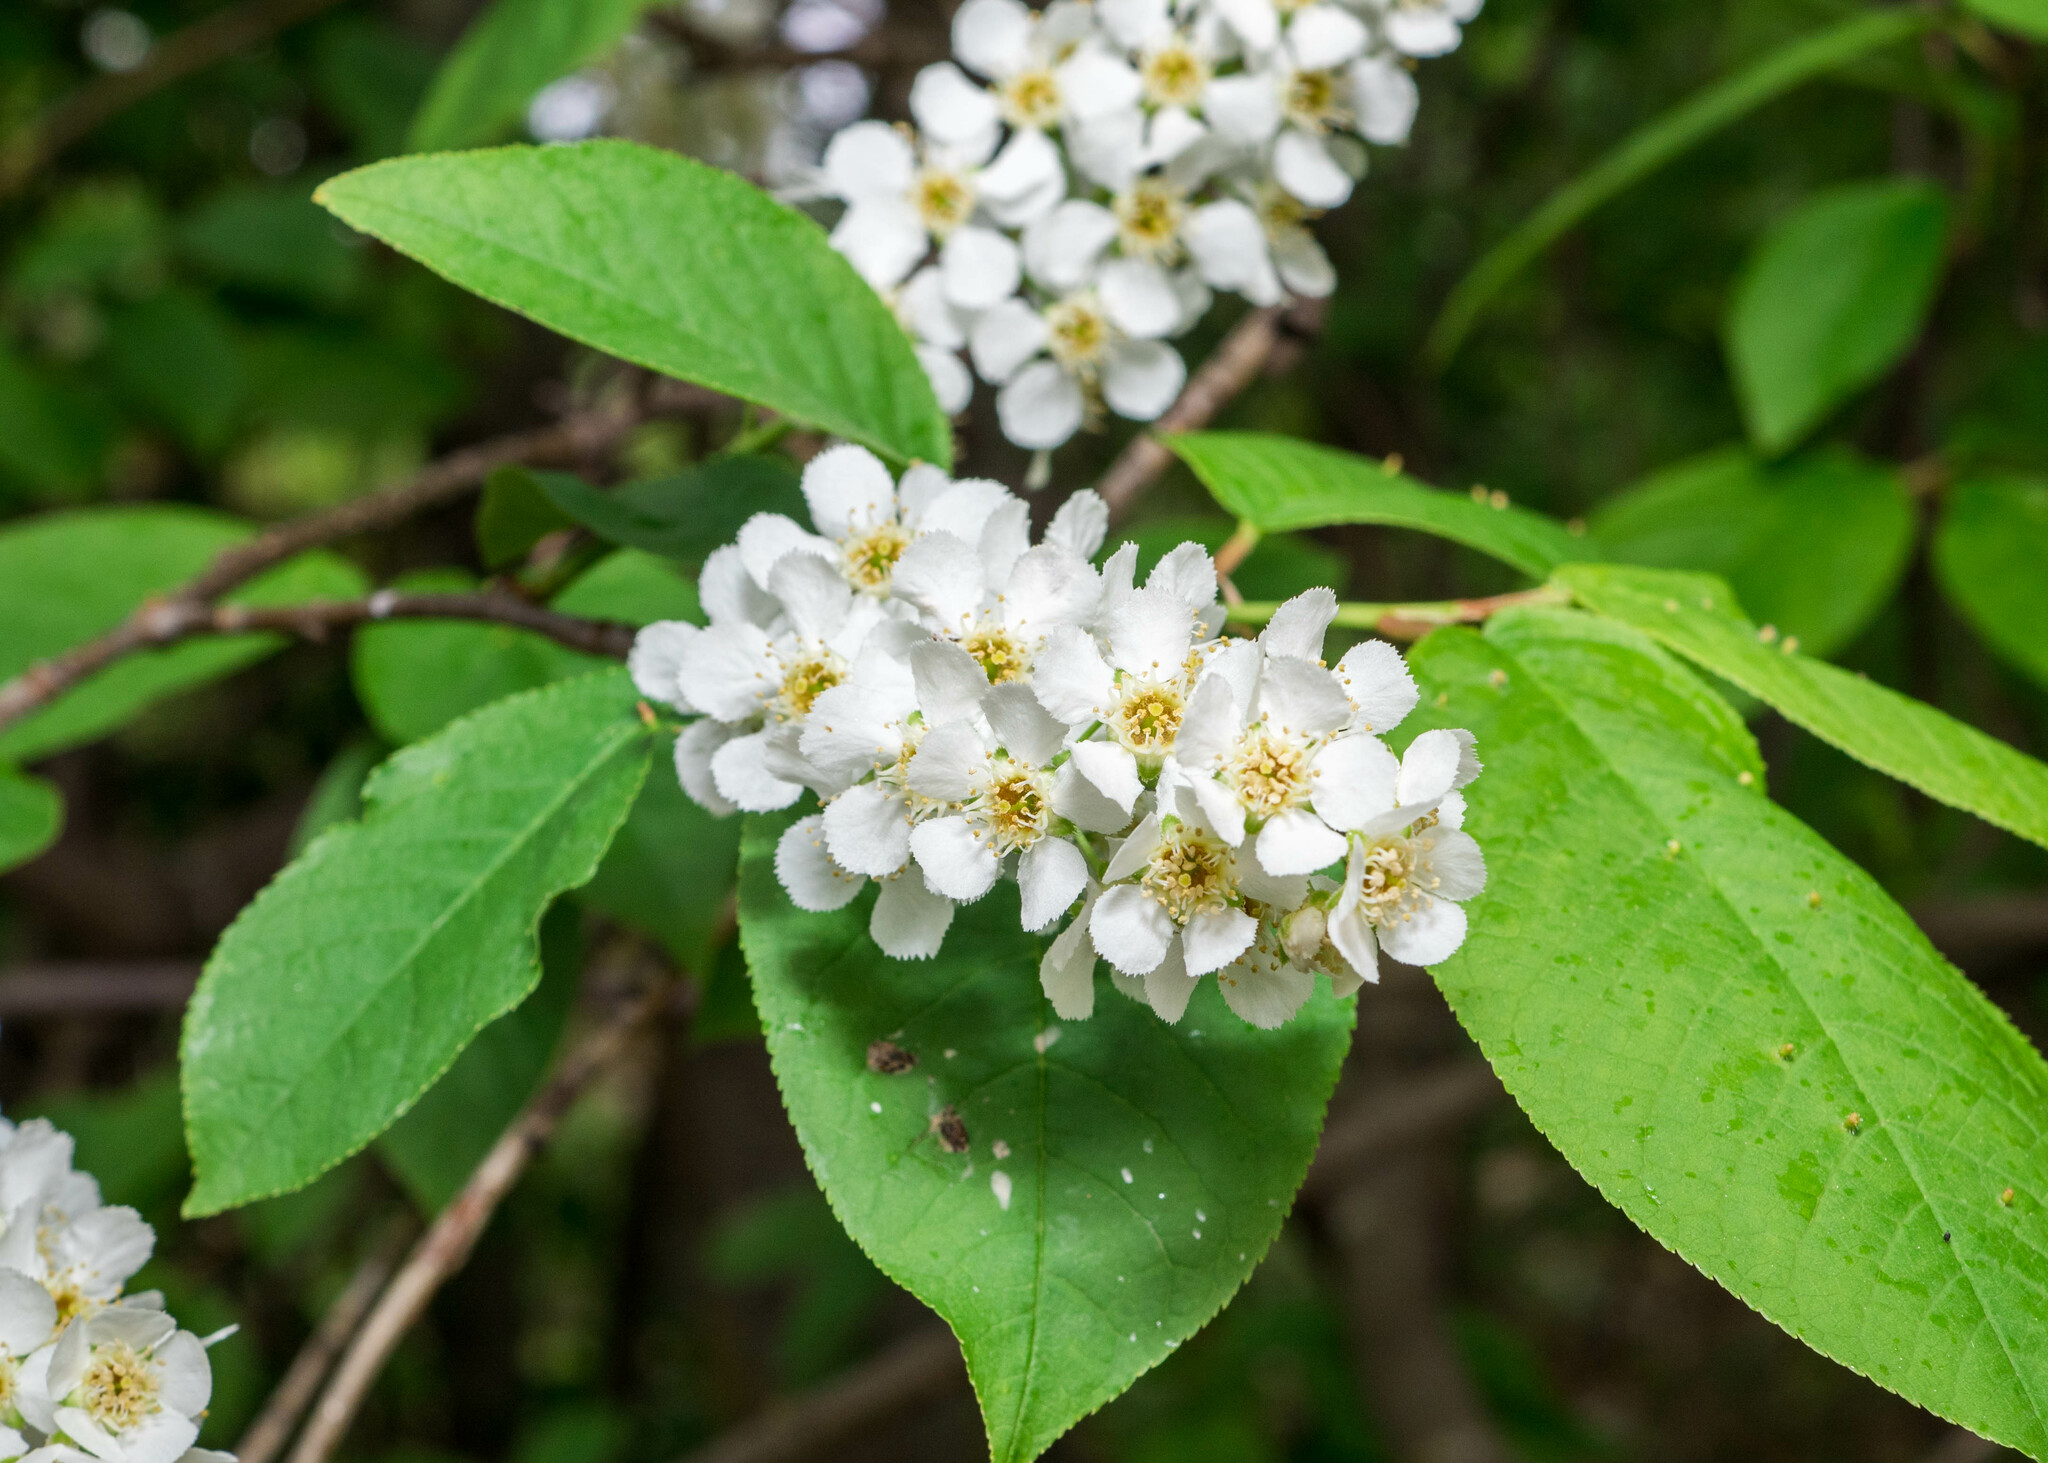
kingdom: Plantae
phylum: Tracheophyta
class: Magnoliopsida
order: Rosales
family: Rosaceae
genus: Prunus
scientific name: Prunus padus
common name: Bird cherry
